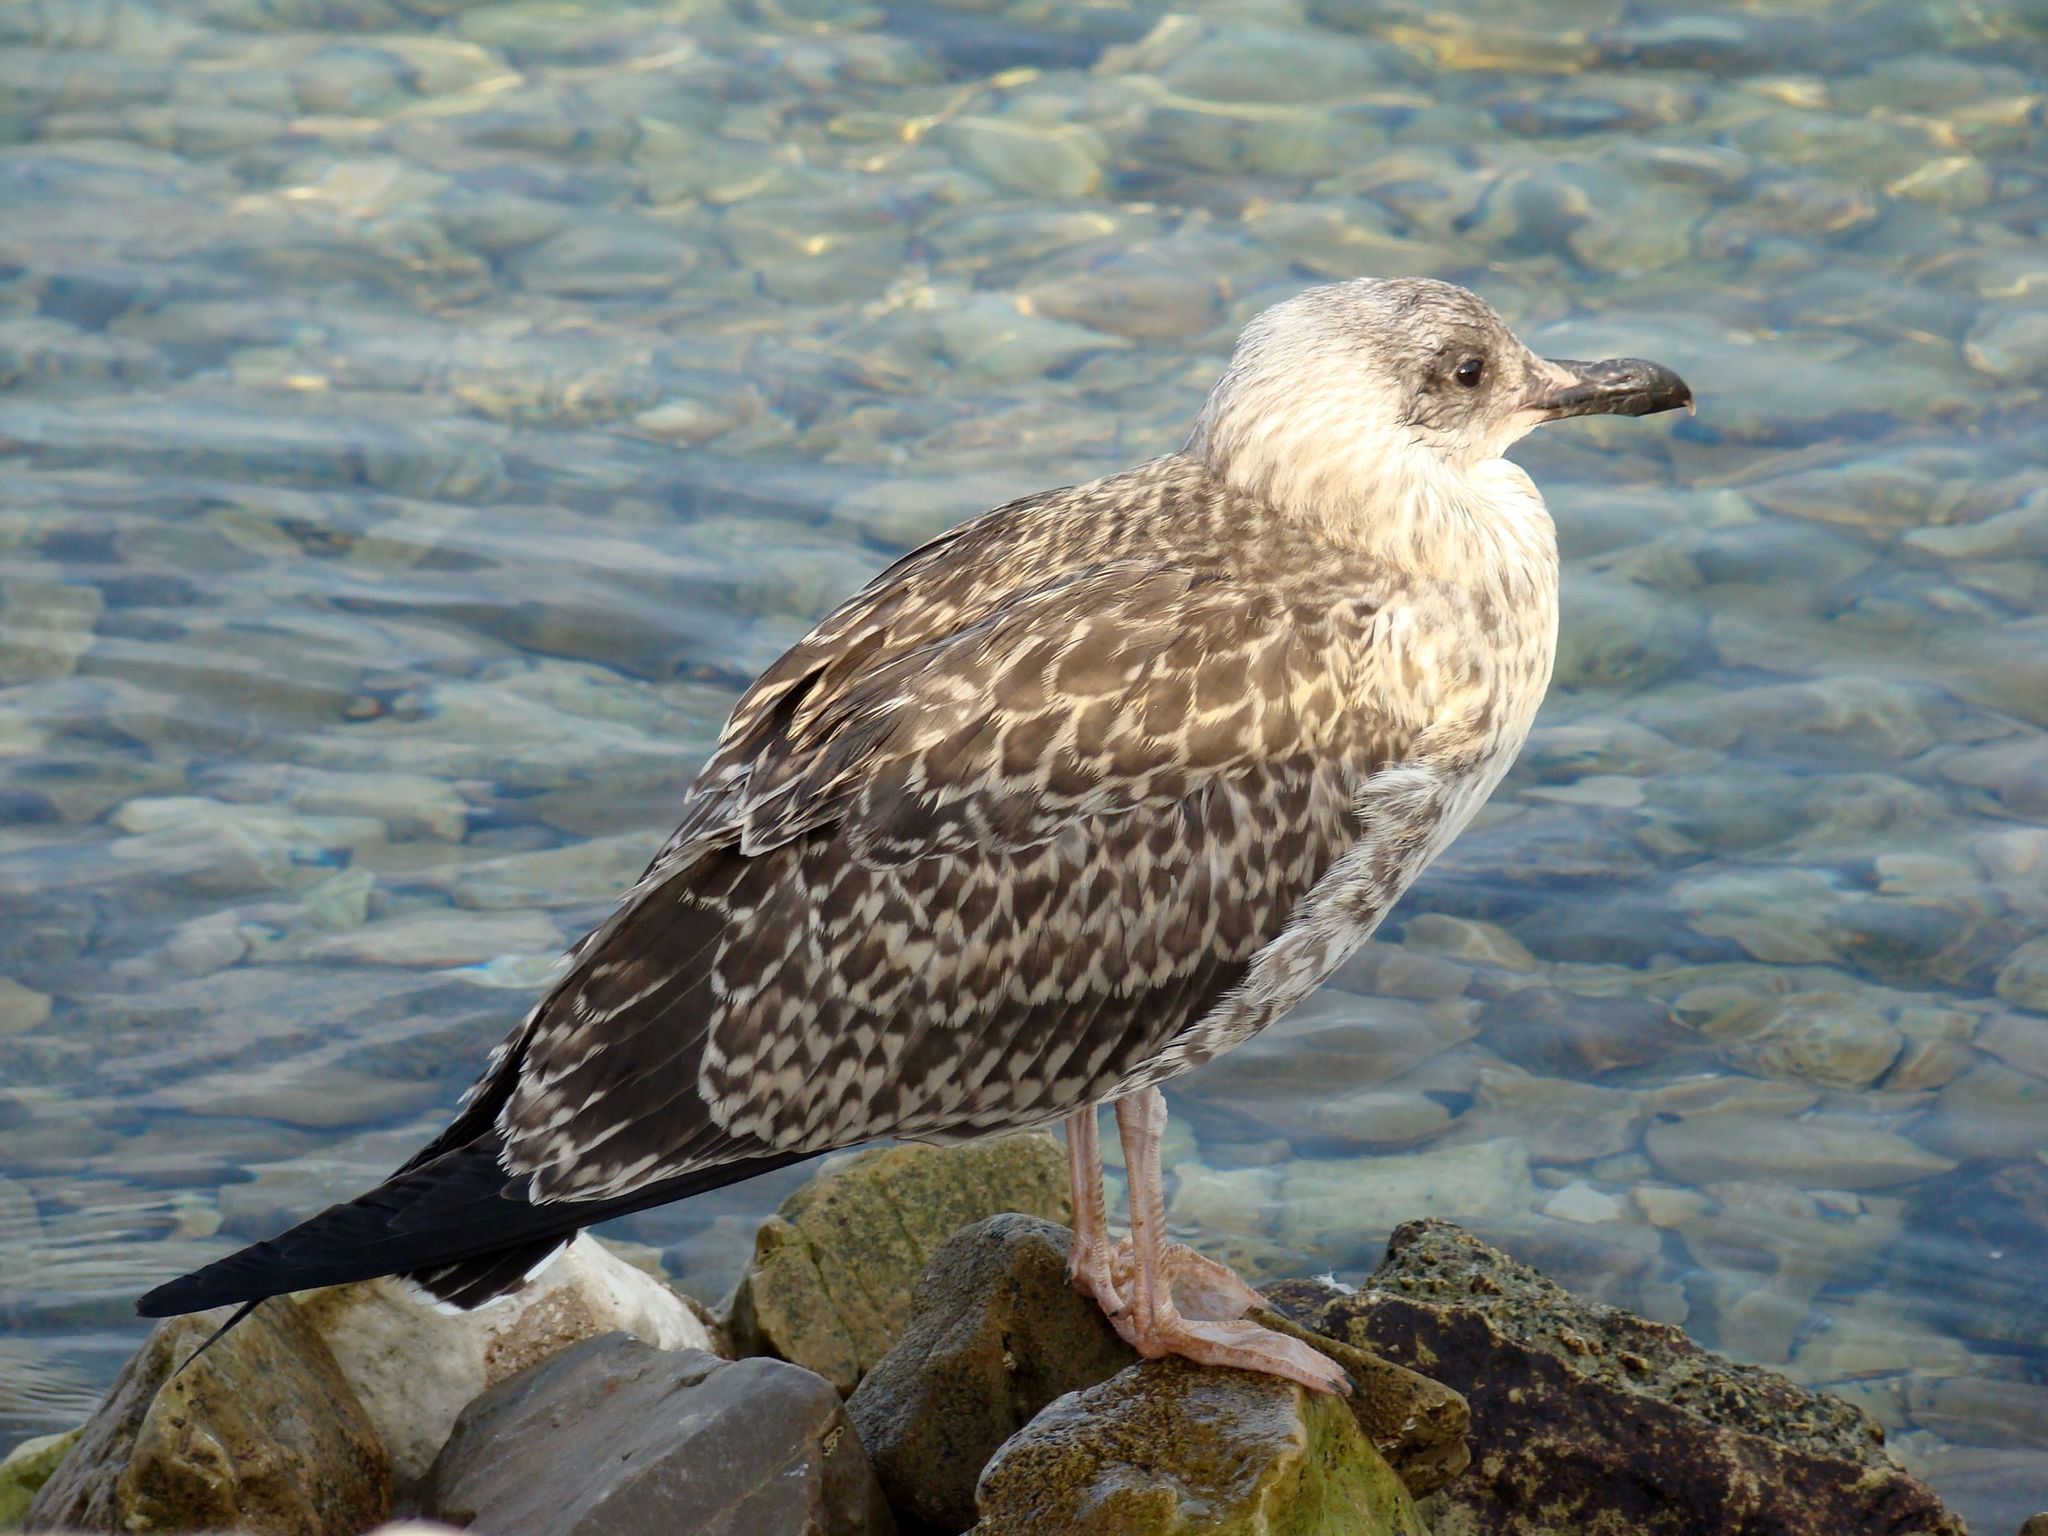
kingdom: Animalia
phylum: Chordata
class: Aves
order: Charadriiformes
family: Laridae
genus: Larus
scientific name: Larus michahellis
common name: Yellow-legged gull
